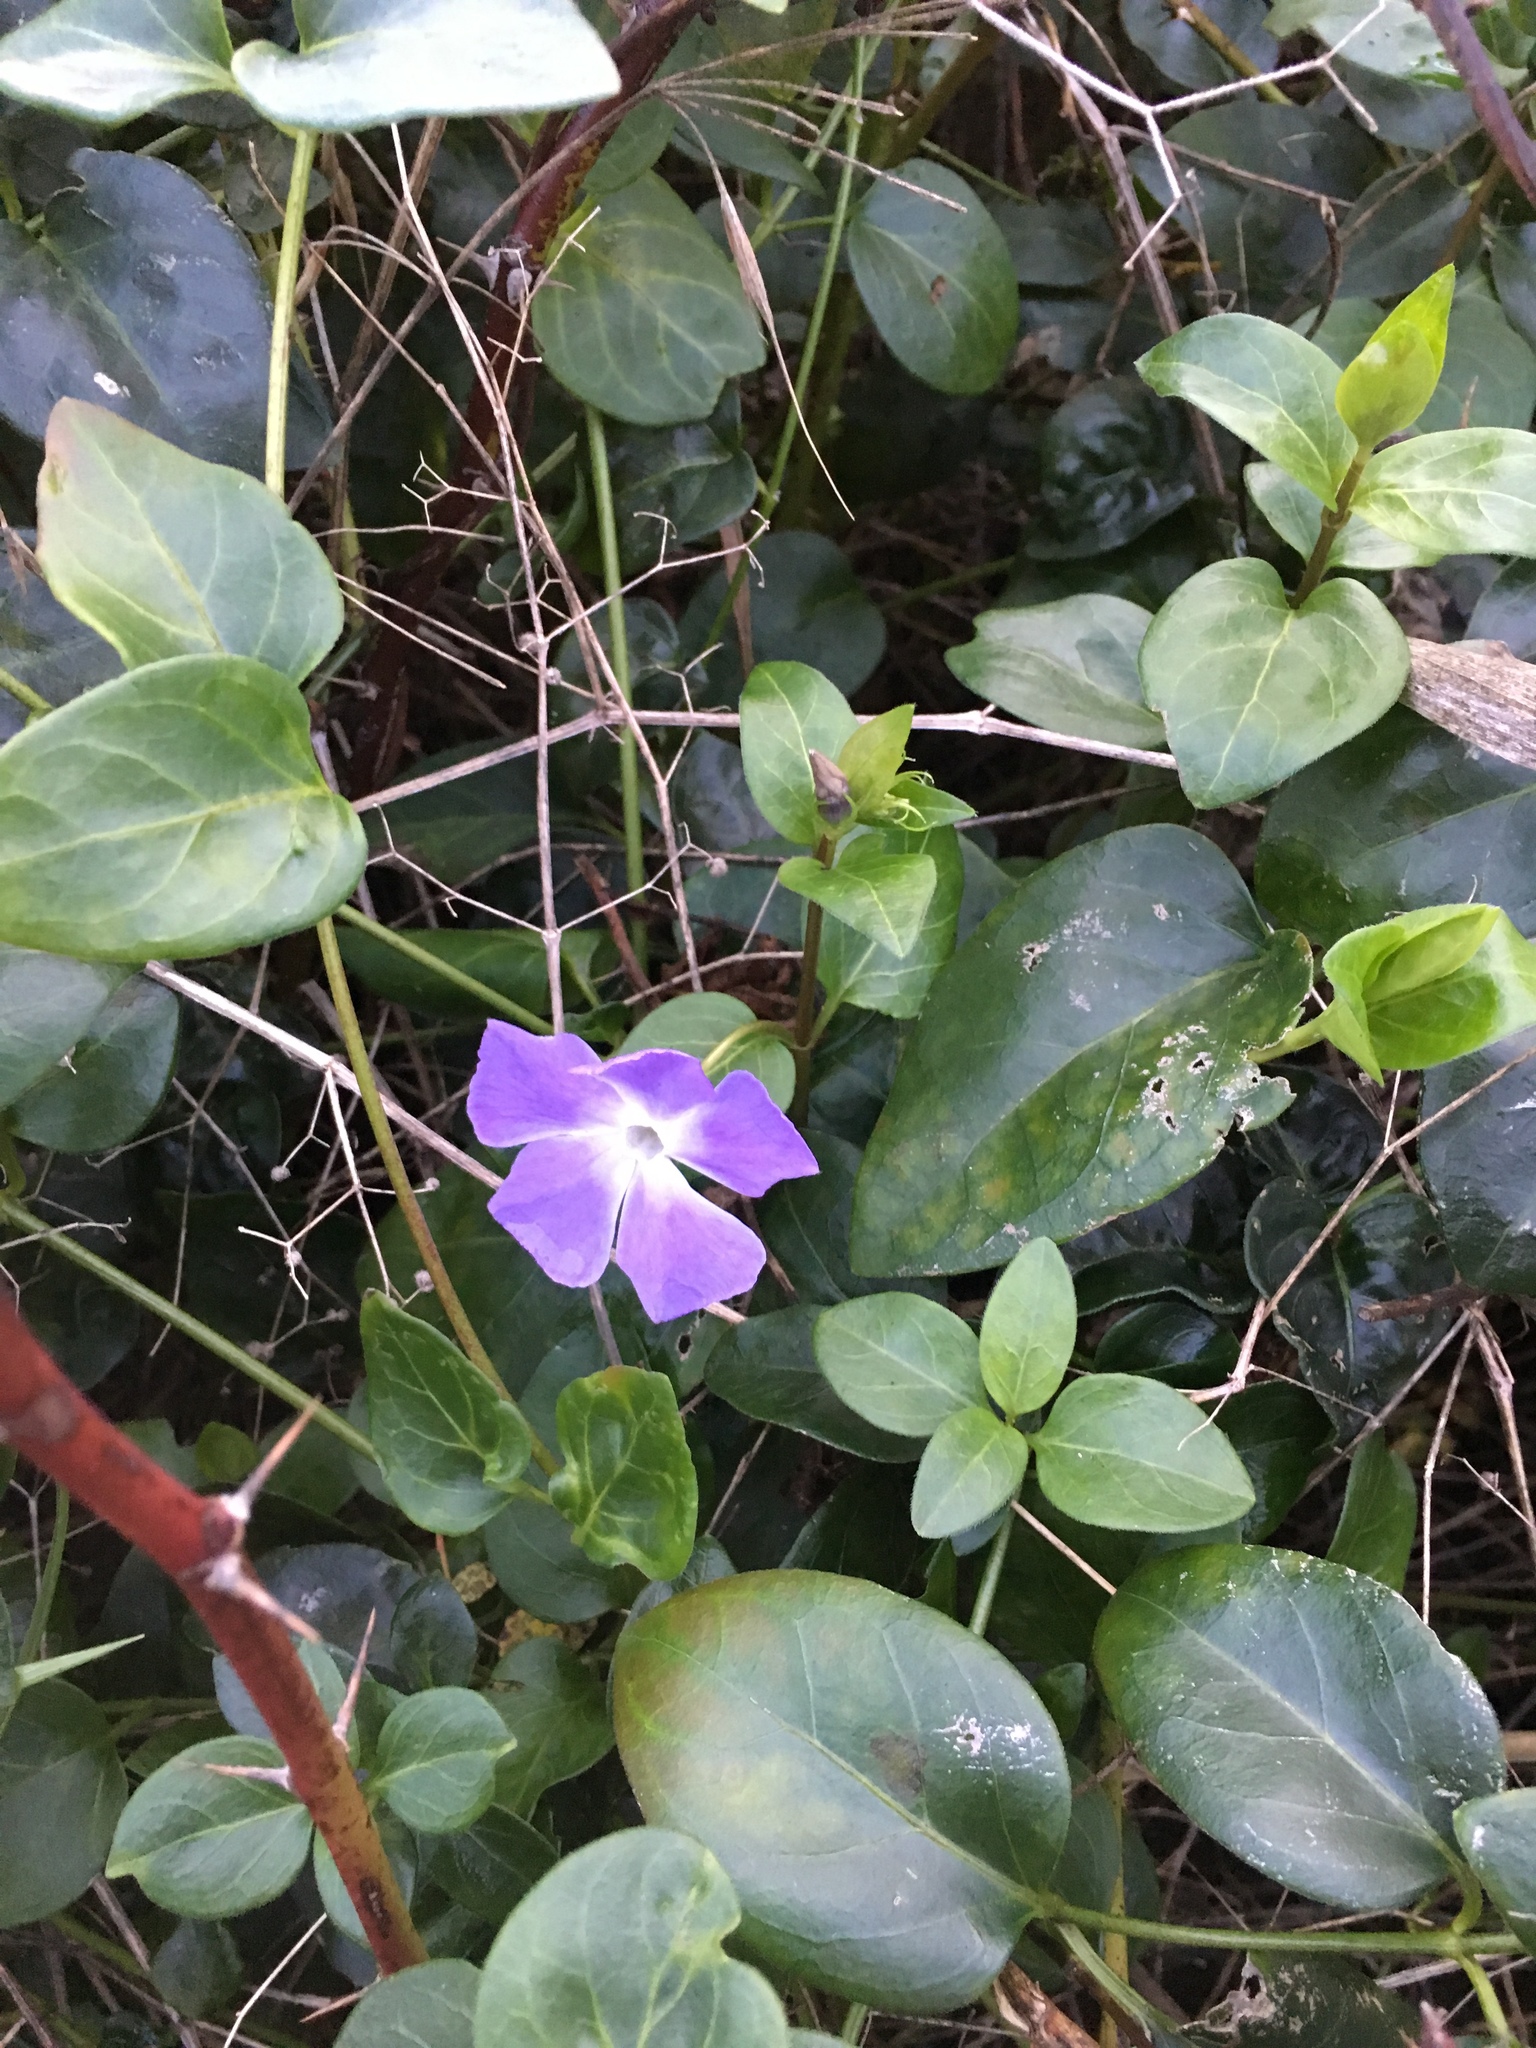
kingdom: Plantae
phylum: Tracheophyta
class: Magnoliopsida
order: Gentianales
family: Apocynaceae
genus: Vinca
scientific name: Vinca major
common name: Greater periwinkle
